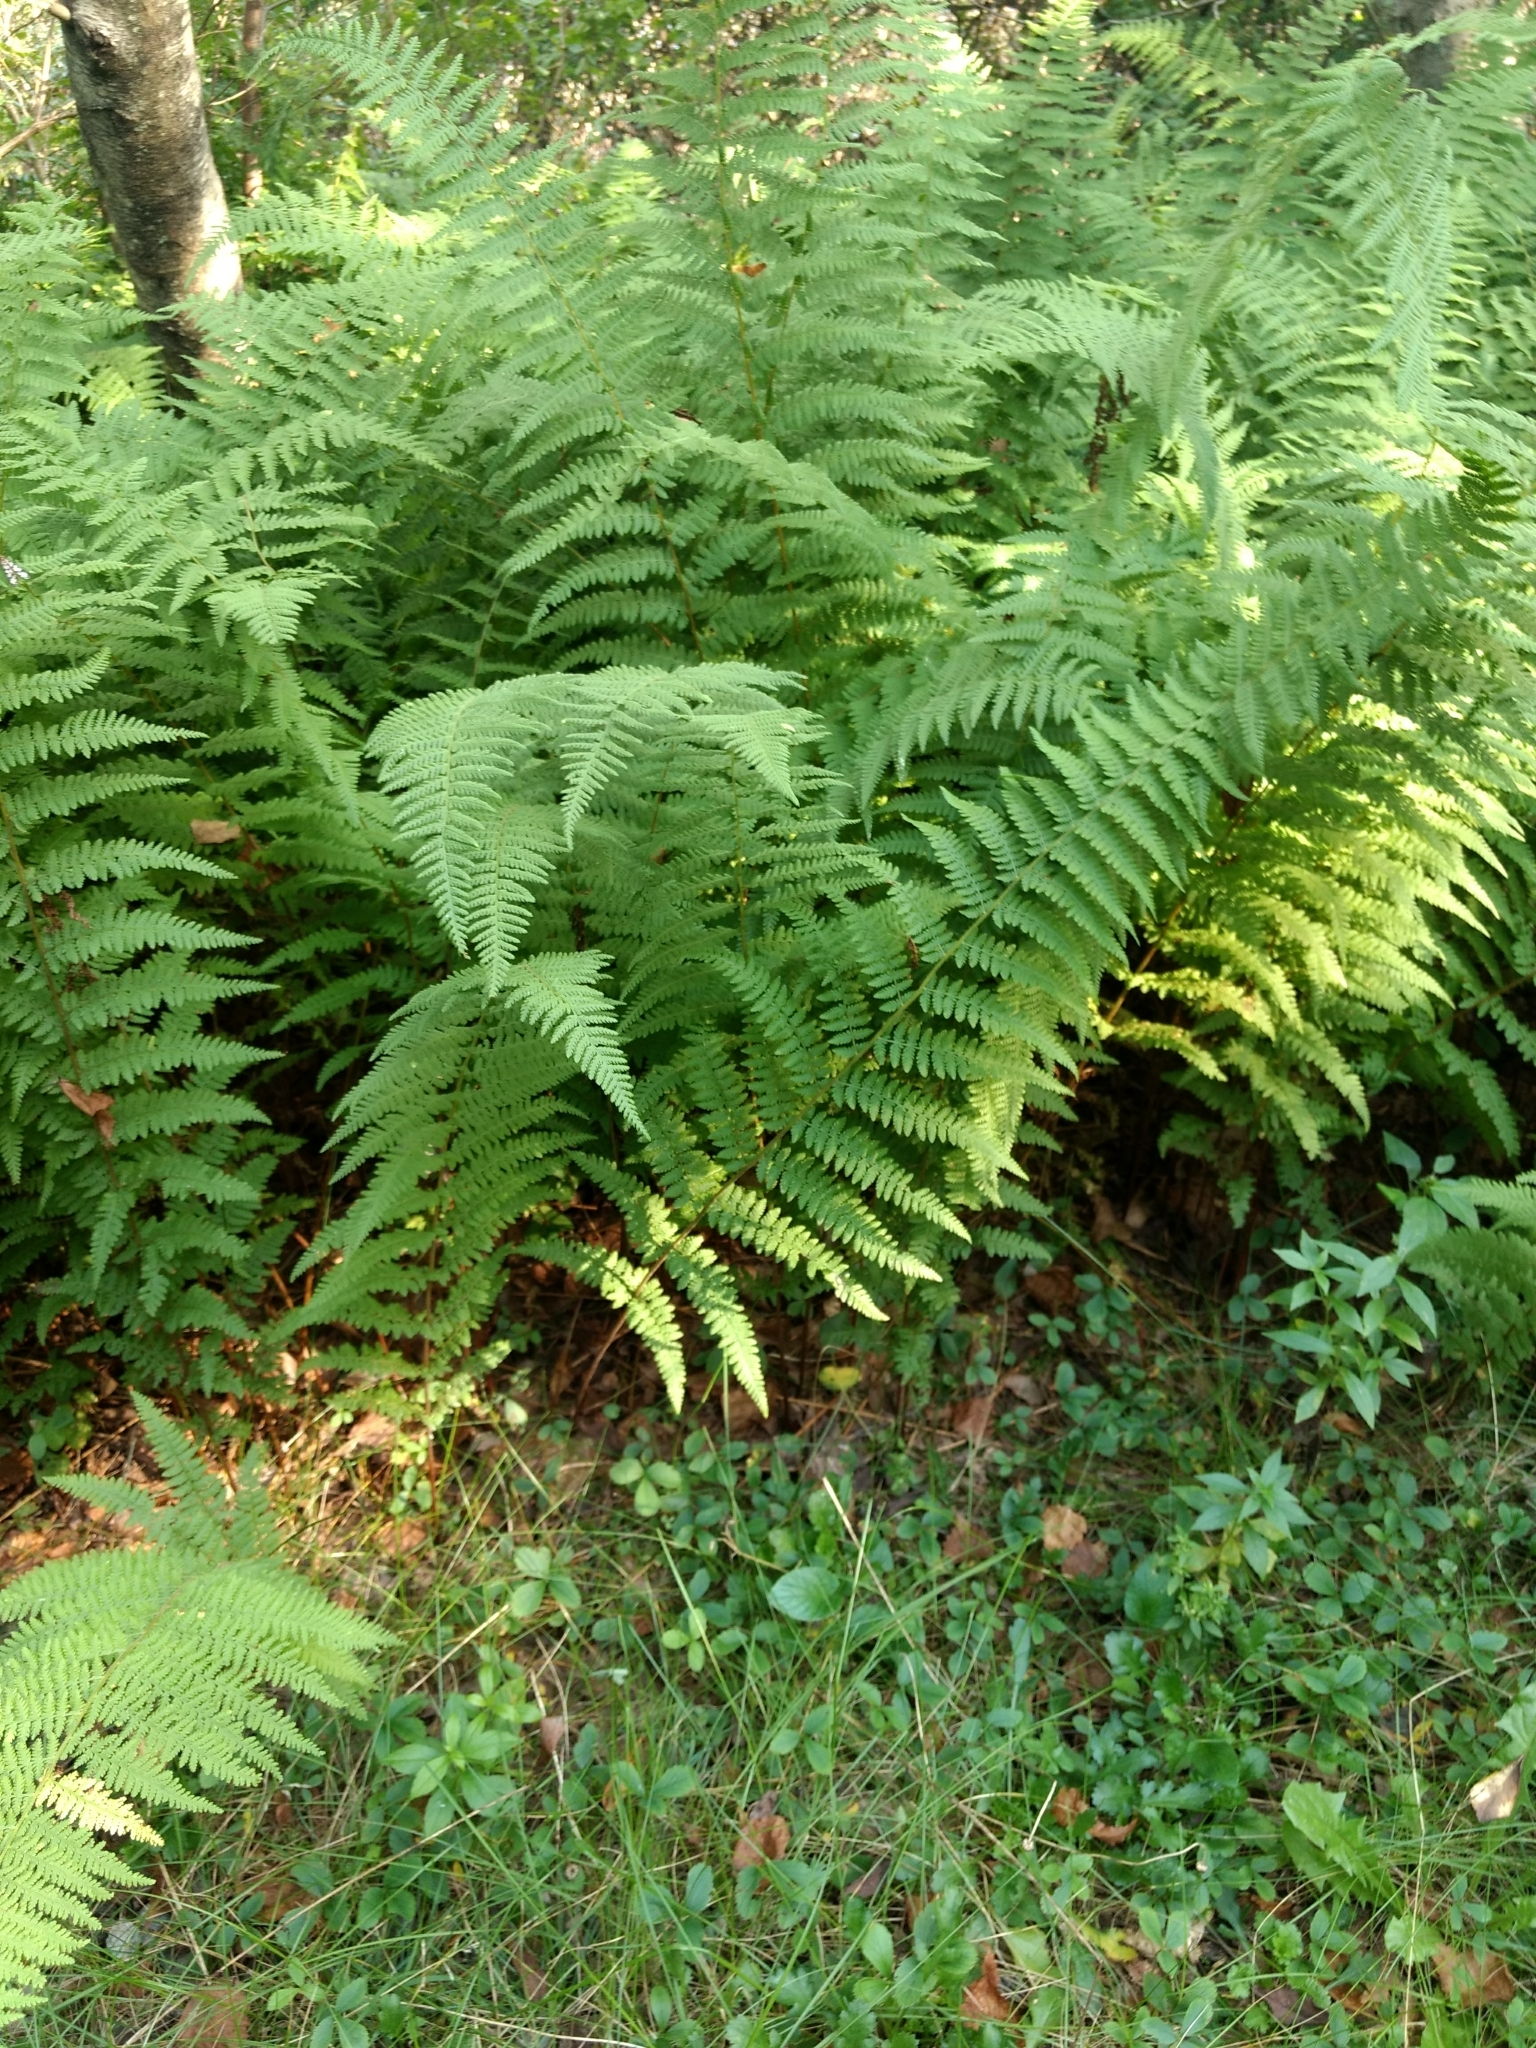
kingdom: Plantae
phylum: Tracheophyta
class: Polypodiopsida
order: Polypodiales
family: Dennstaedtiaceae
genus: Sitobolium
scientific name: Sitobolium punctilobum
